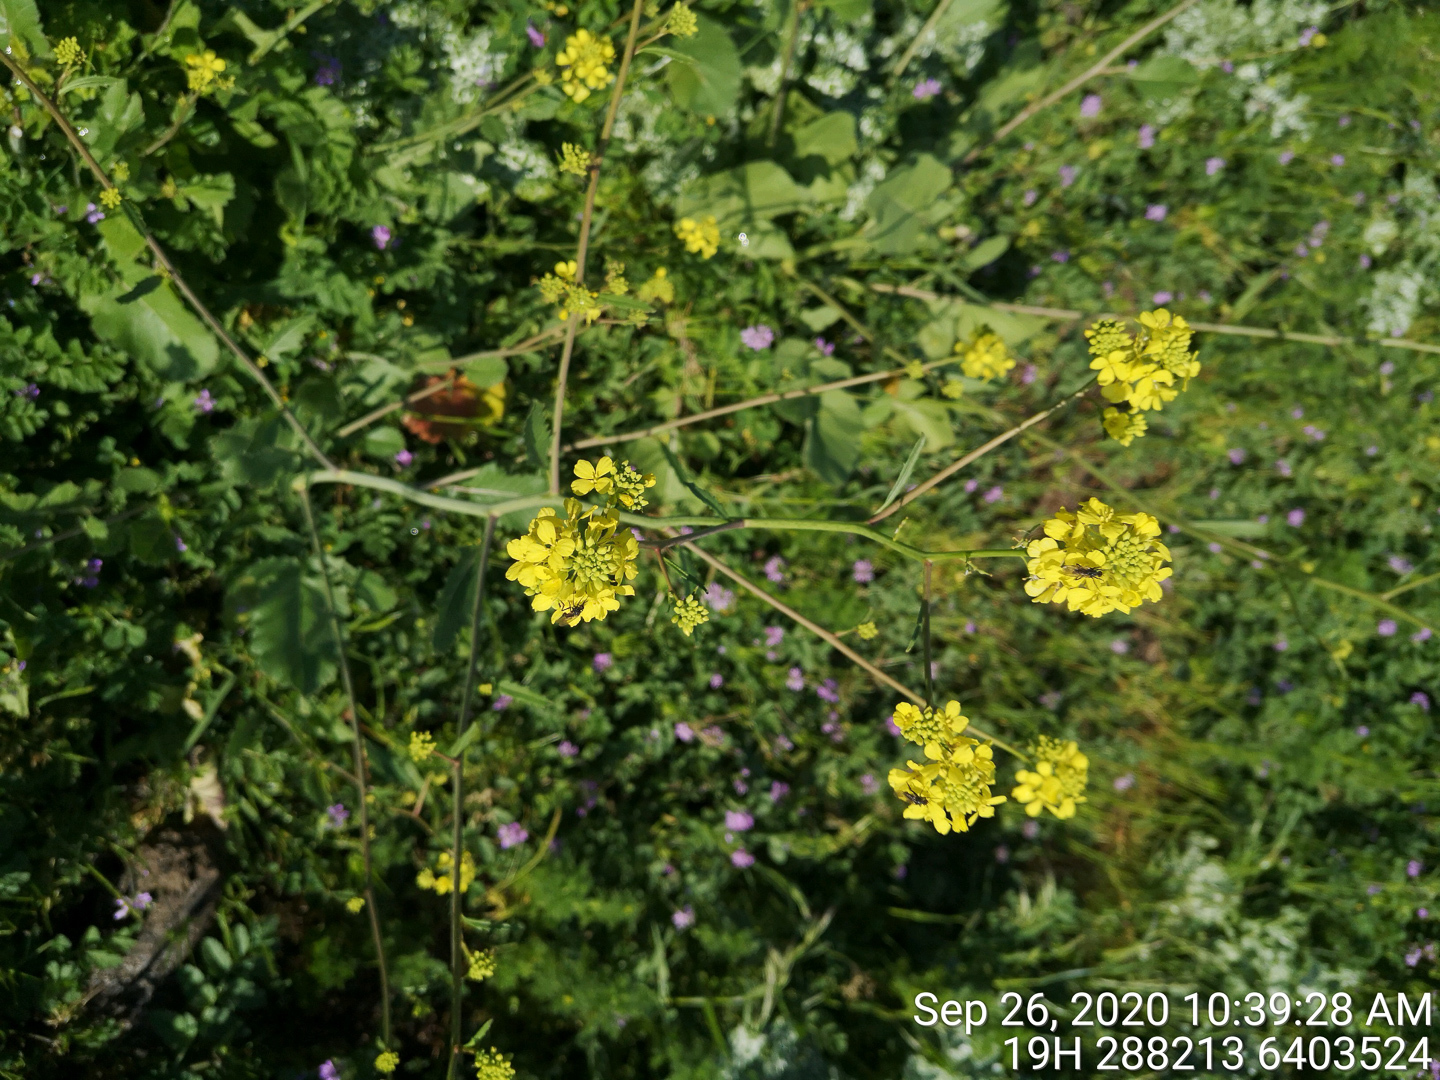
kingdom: Plantae
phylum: Tracheophyta
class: Magnoliopsida
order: Brassicales
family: Brassicaceae
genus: Rapistrum
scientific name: Rapistrum rugosum
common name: Annual bastardcabbage
